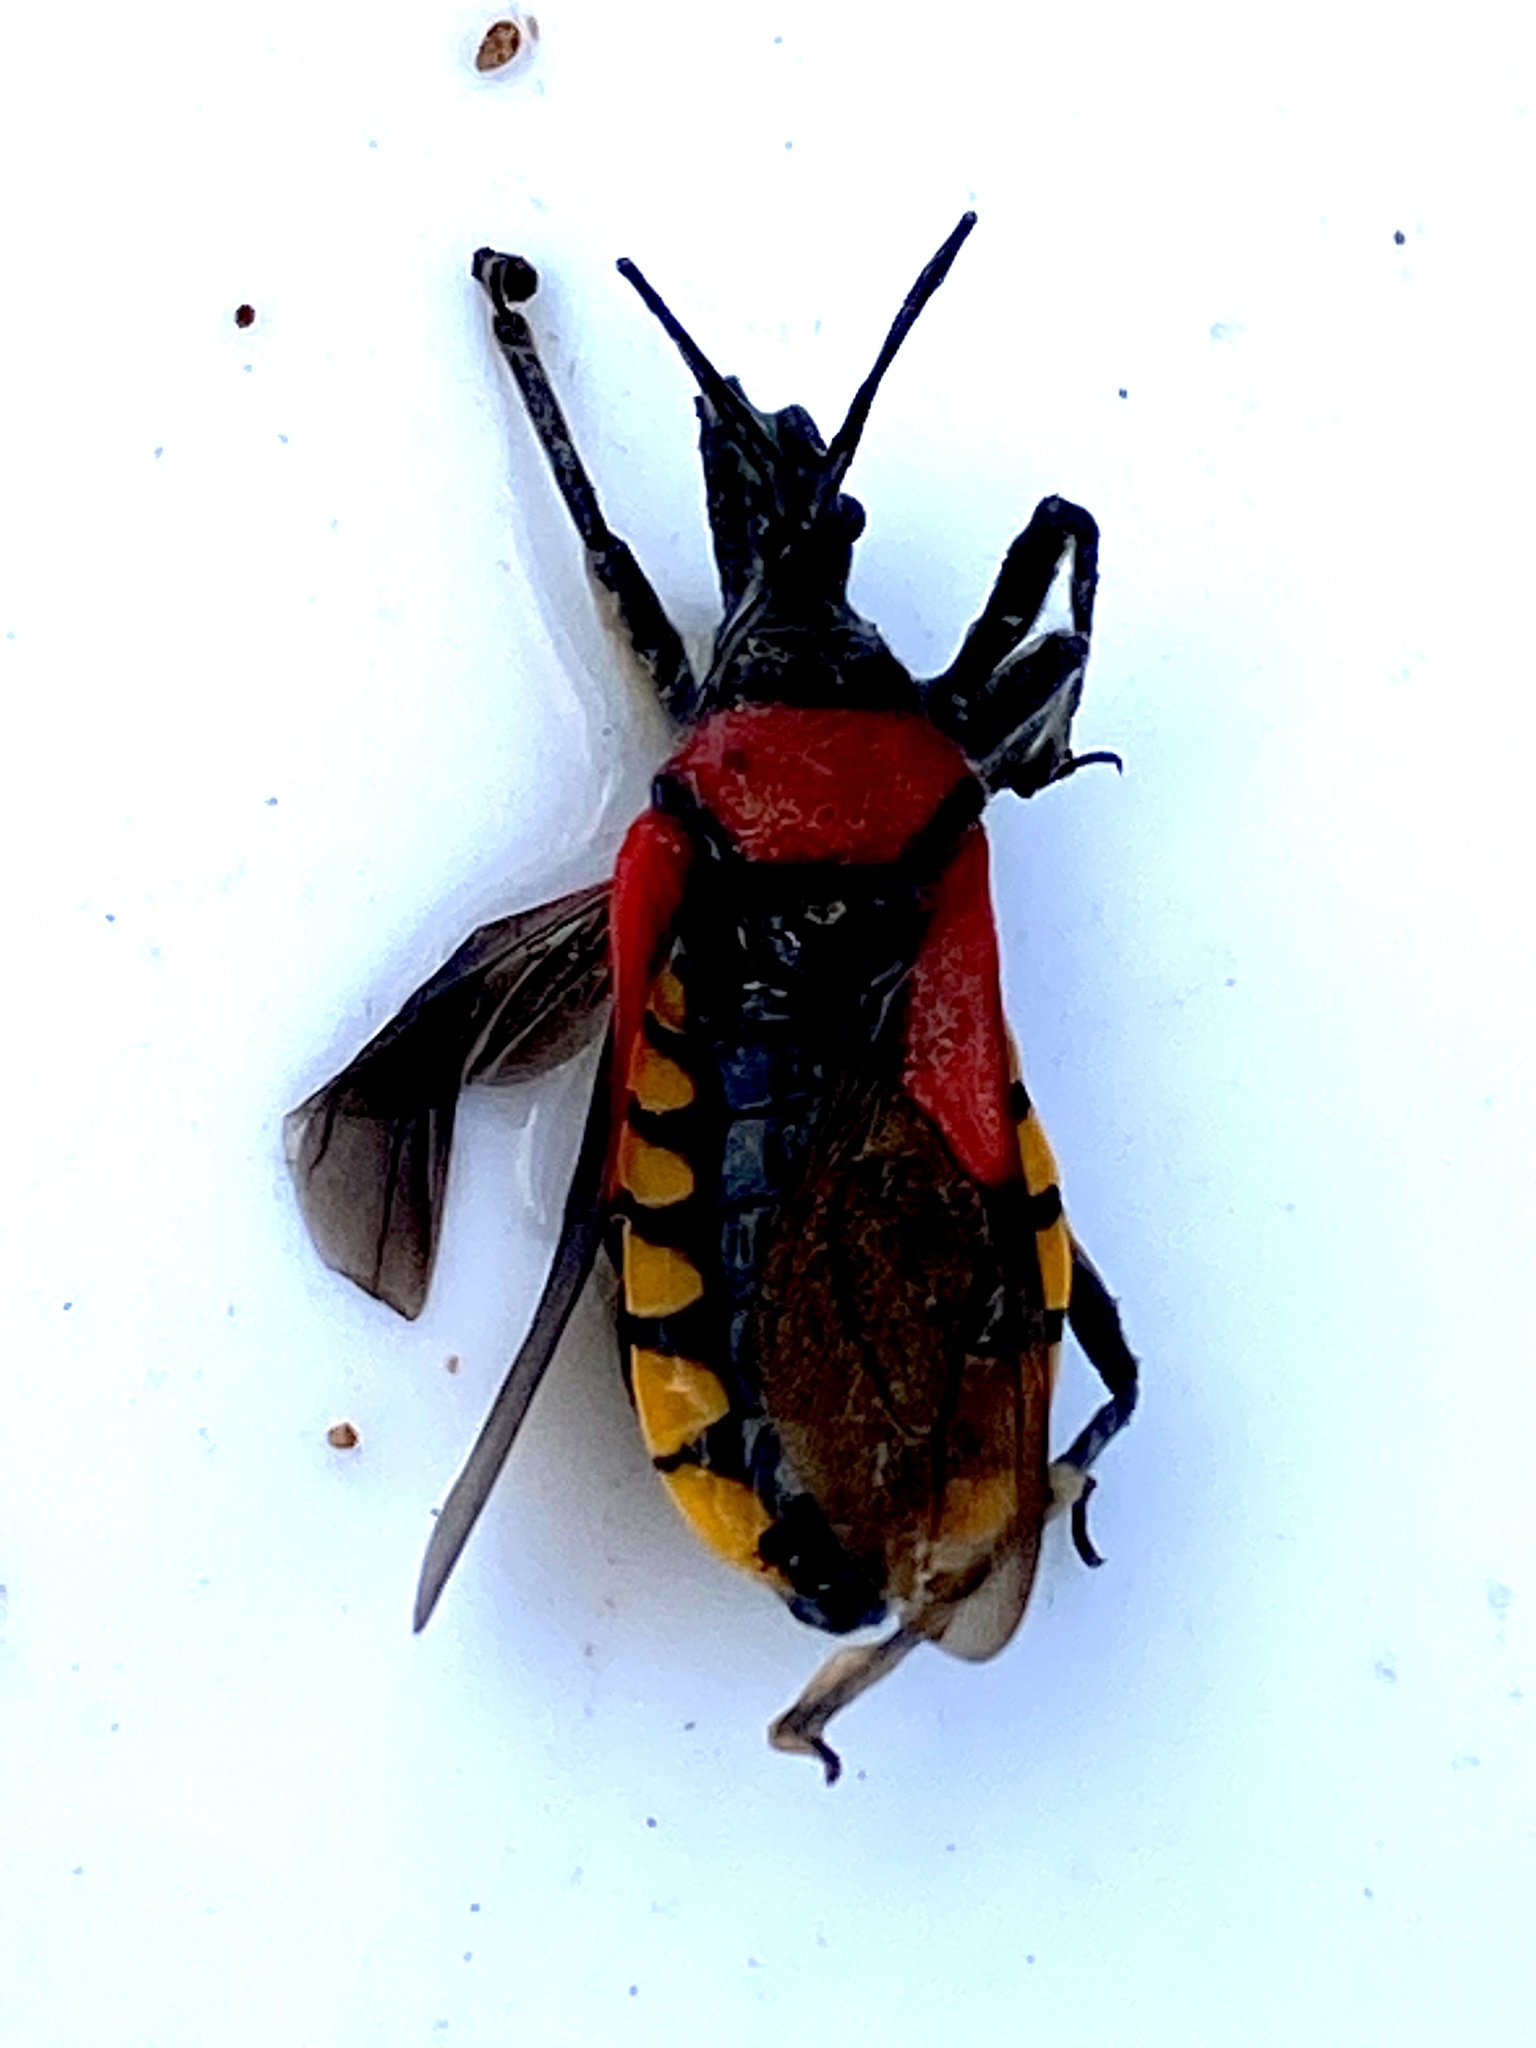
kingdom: Animalia
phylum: Arthropoda
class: Insecta
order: Hemiptera
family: Reduviidae
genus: Rhynocoris
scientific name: Rhynocoris segmentarius
